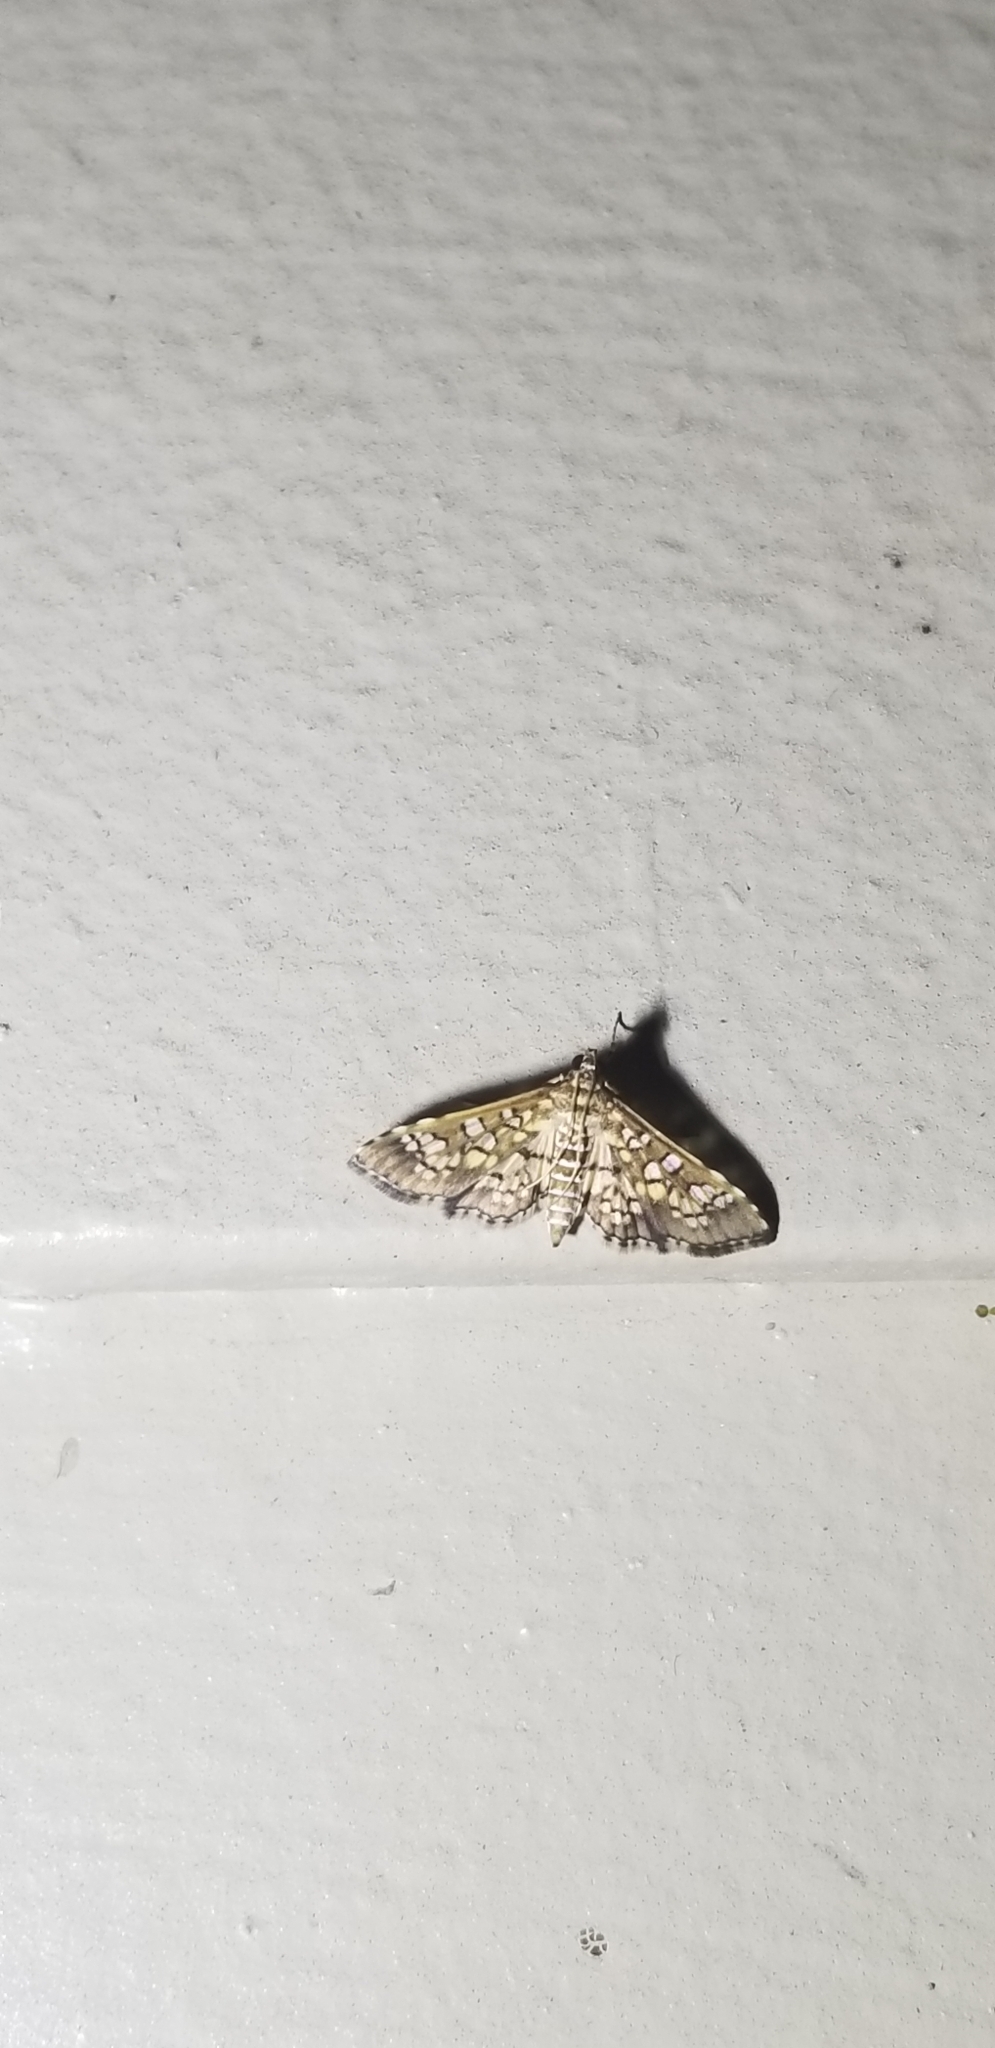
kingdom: Animalia
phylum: Arthropoda
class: Insecta
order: Lepidoptera
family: Crambidae
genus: Samea
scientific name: Samea ecclesialis
